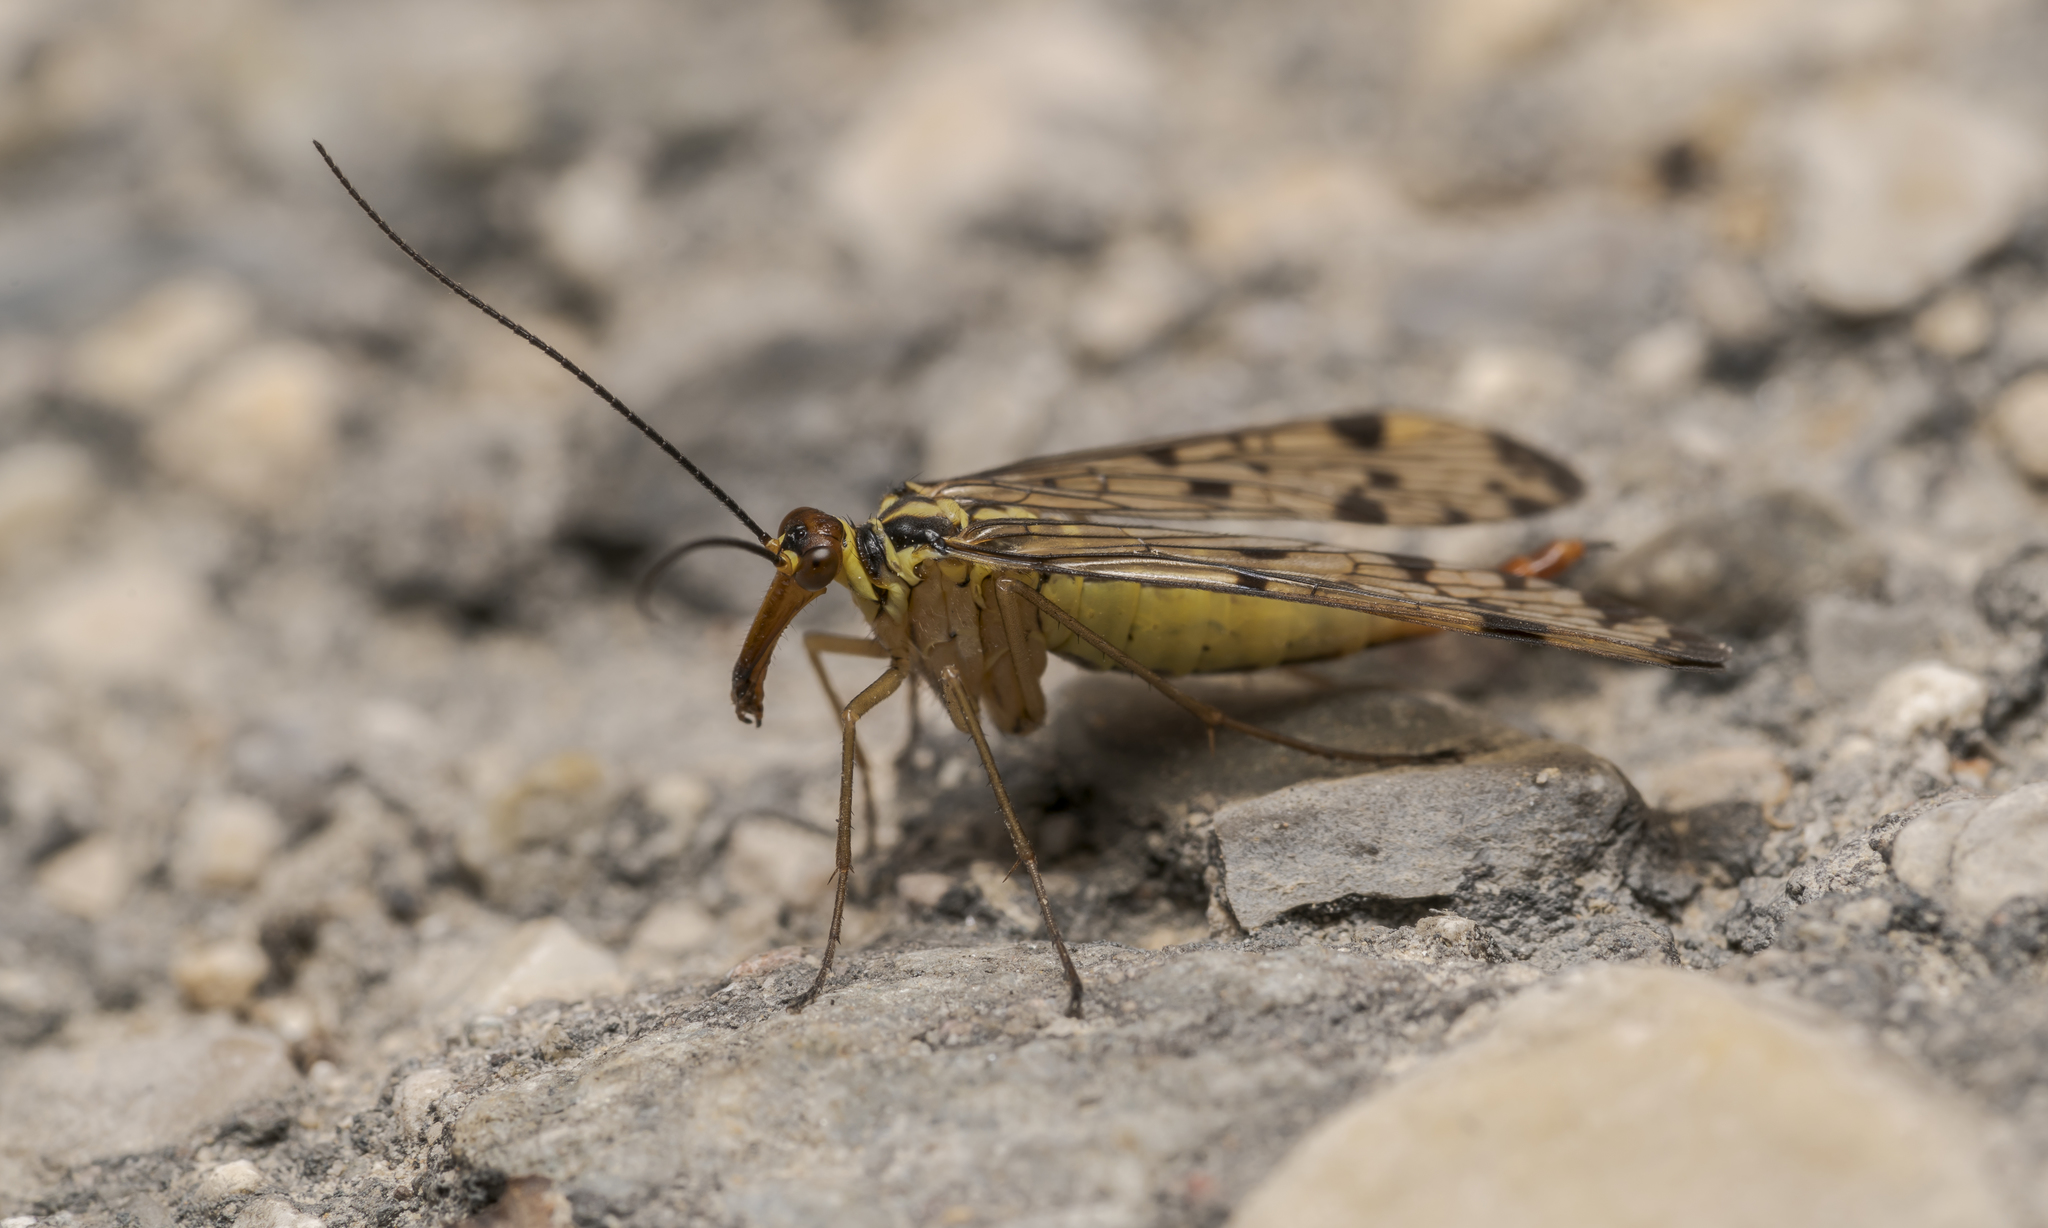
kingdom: Animalia
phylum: Arthropoda
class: Insecta
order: Mecoptera
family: Panorpidae
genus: Panorpa
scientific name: Panorpa germanica
